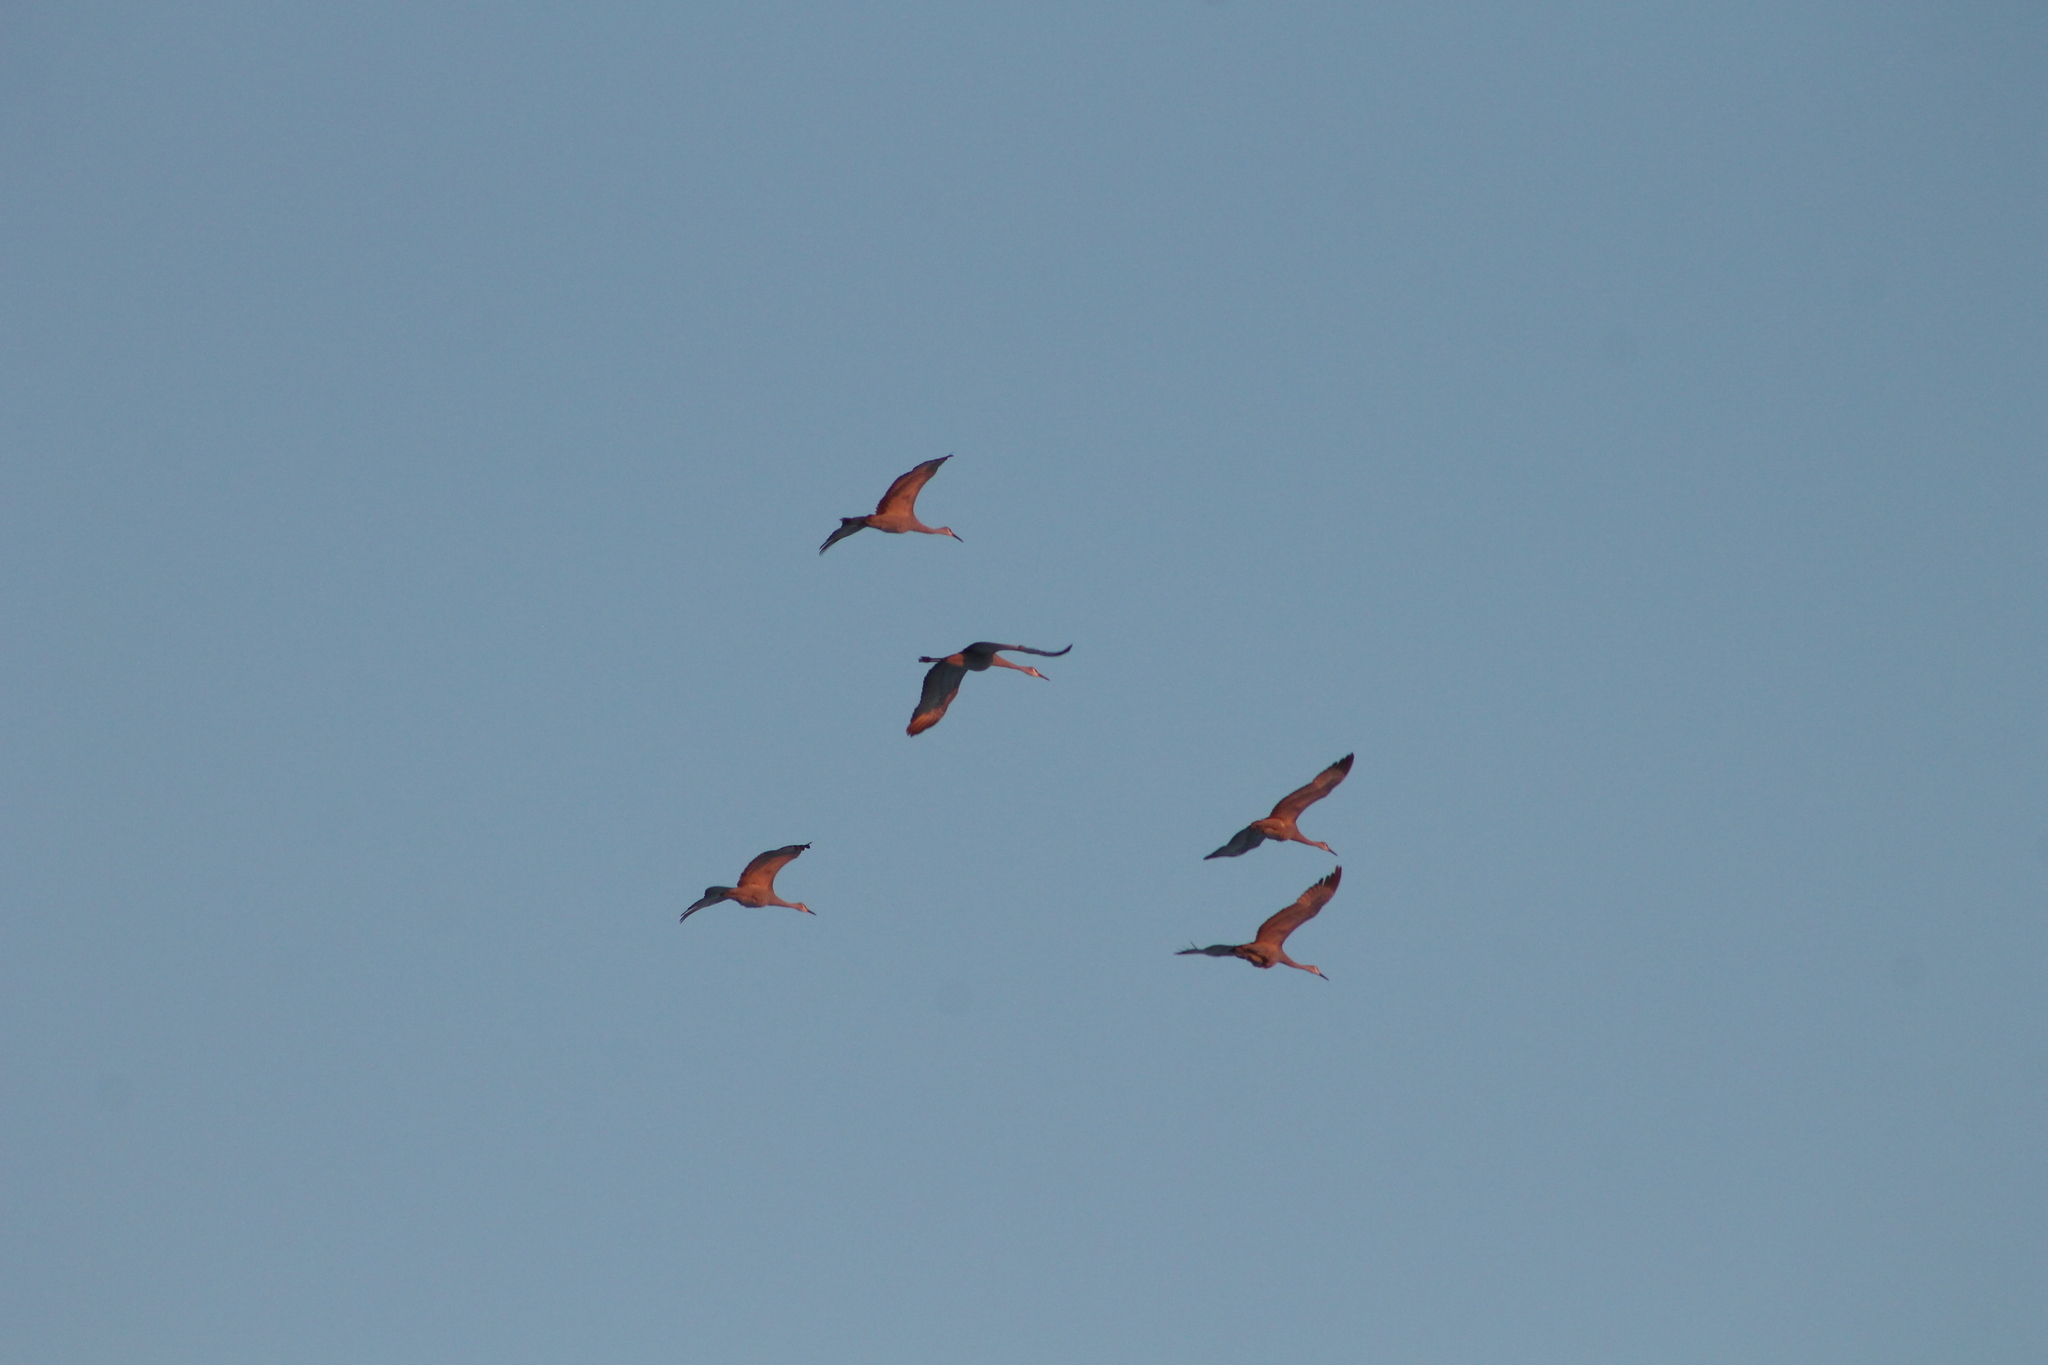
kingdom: Animalia
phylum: Chordata
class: Aves
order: Gruiformes
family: Gruidae
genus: Grus
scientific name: Grus canadensis
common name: Sandhill crane
